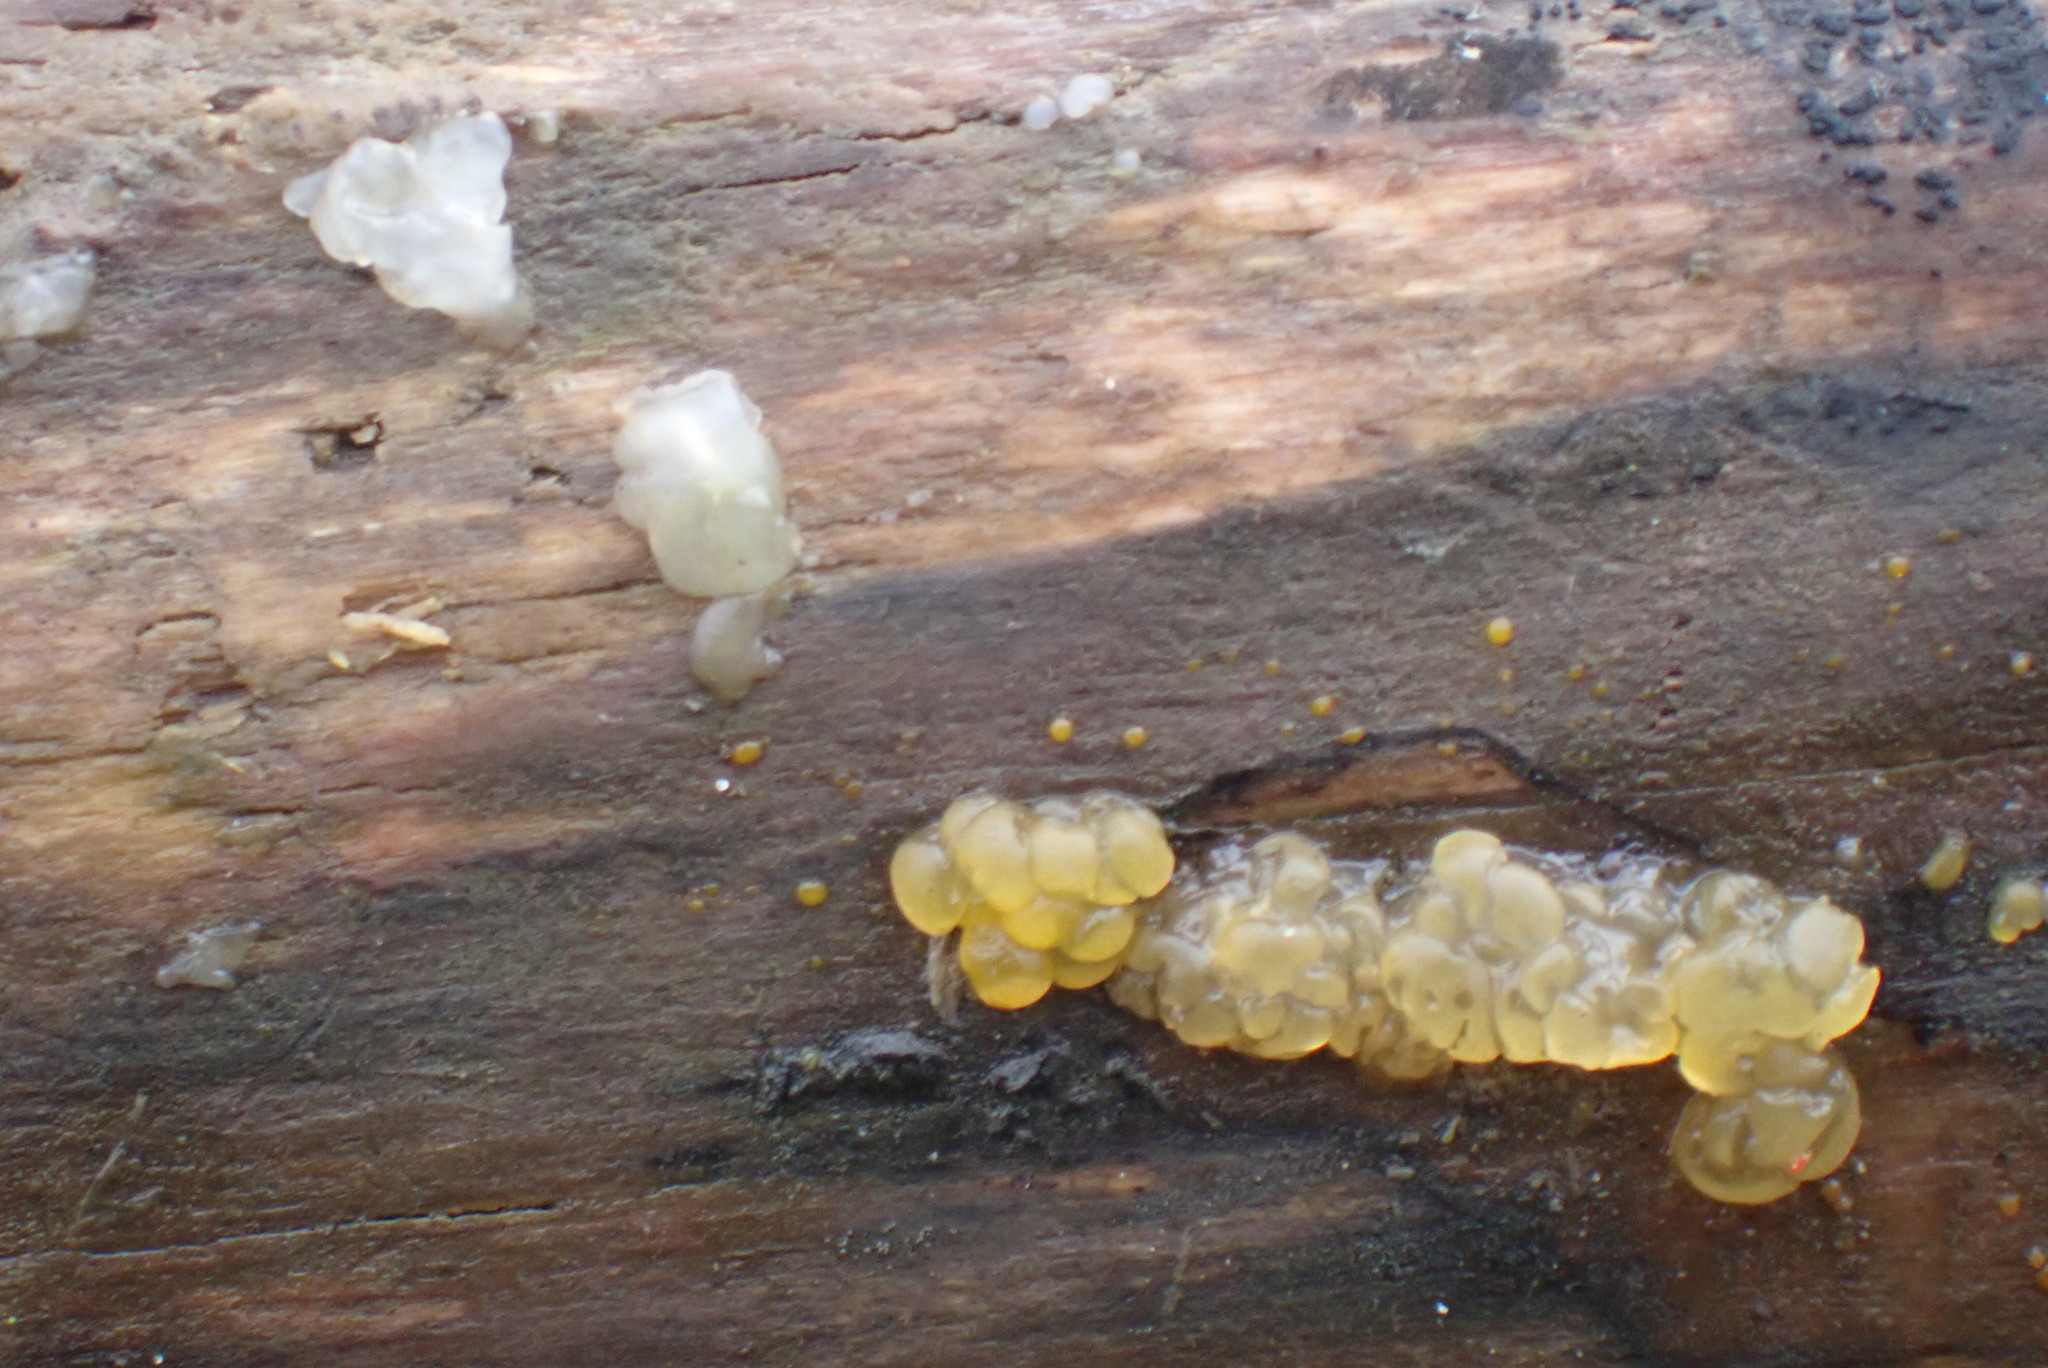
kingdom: Fungi
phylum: Basidiomycota
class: Agaricomycetes
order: Auriculariales
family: Hyaloriaceae
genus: Myxarium
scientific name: Myxarium nucleatum
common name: Crystal brain fungus
